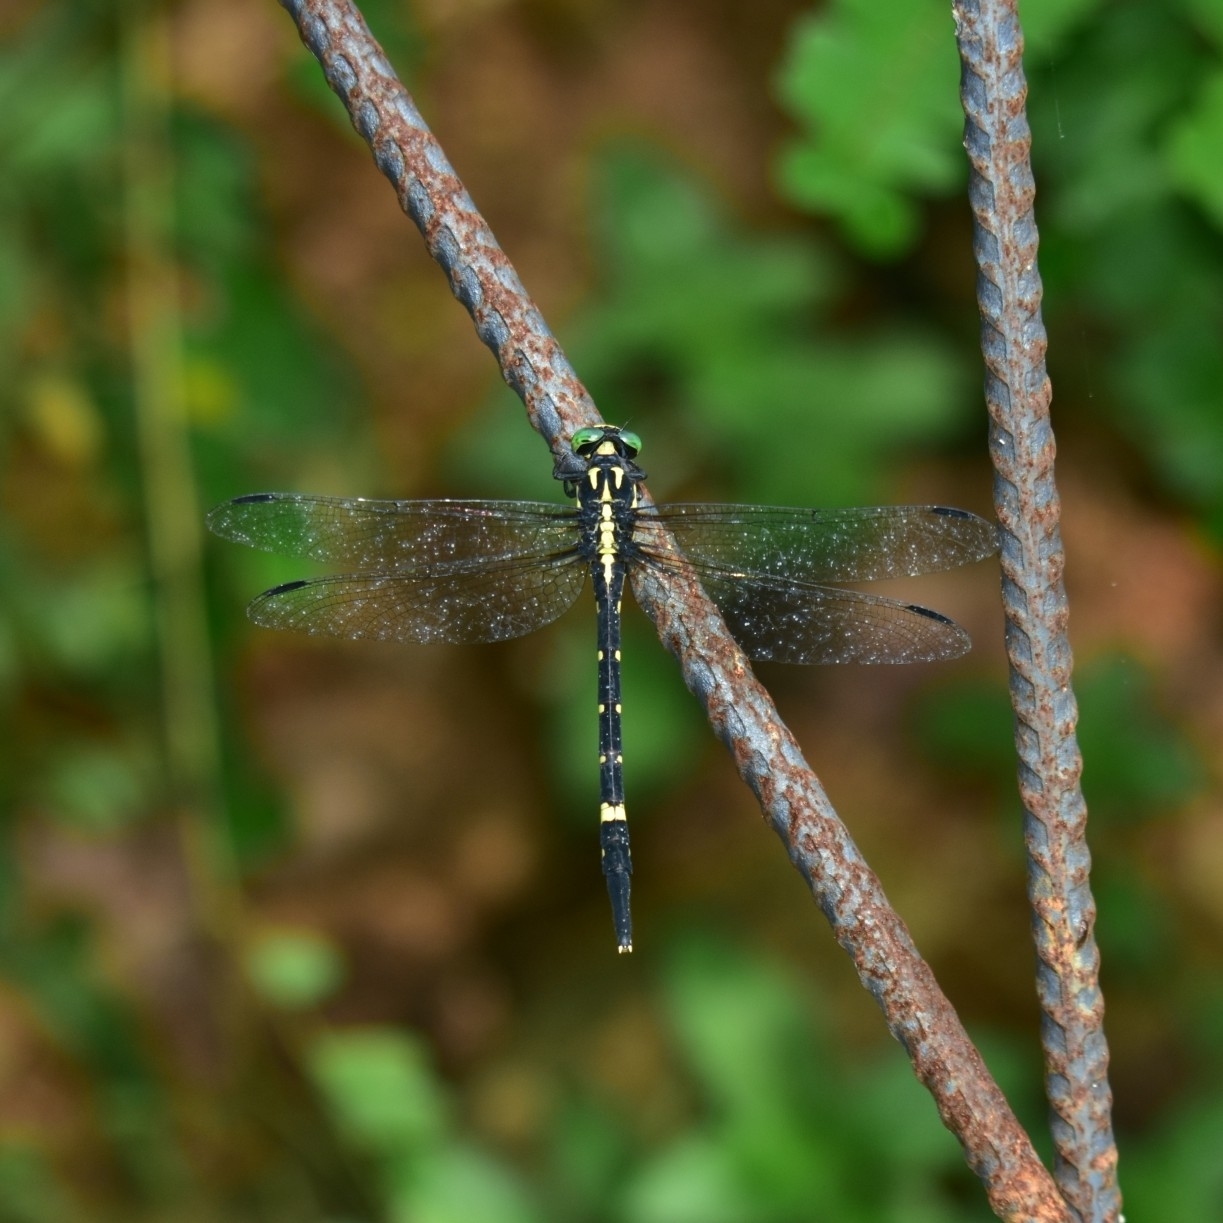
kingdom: Animalia
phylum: Arthropoda
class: Insecta
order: Odonata
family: Gomphidae
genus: Macrogomphus
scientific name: Macrogomphus wynaadicus
